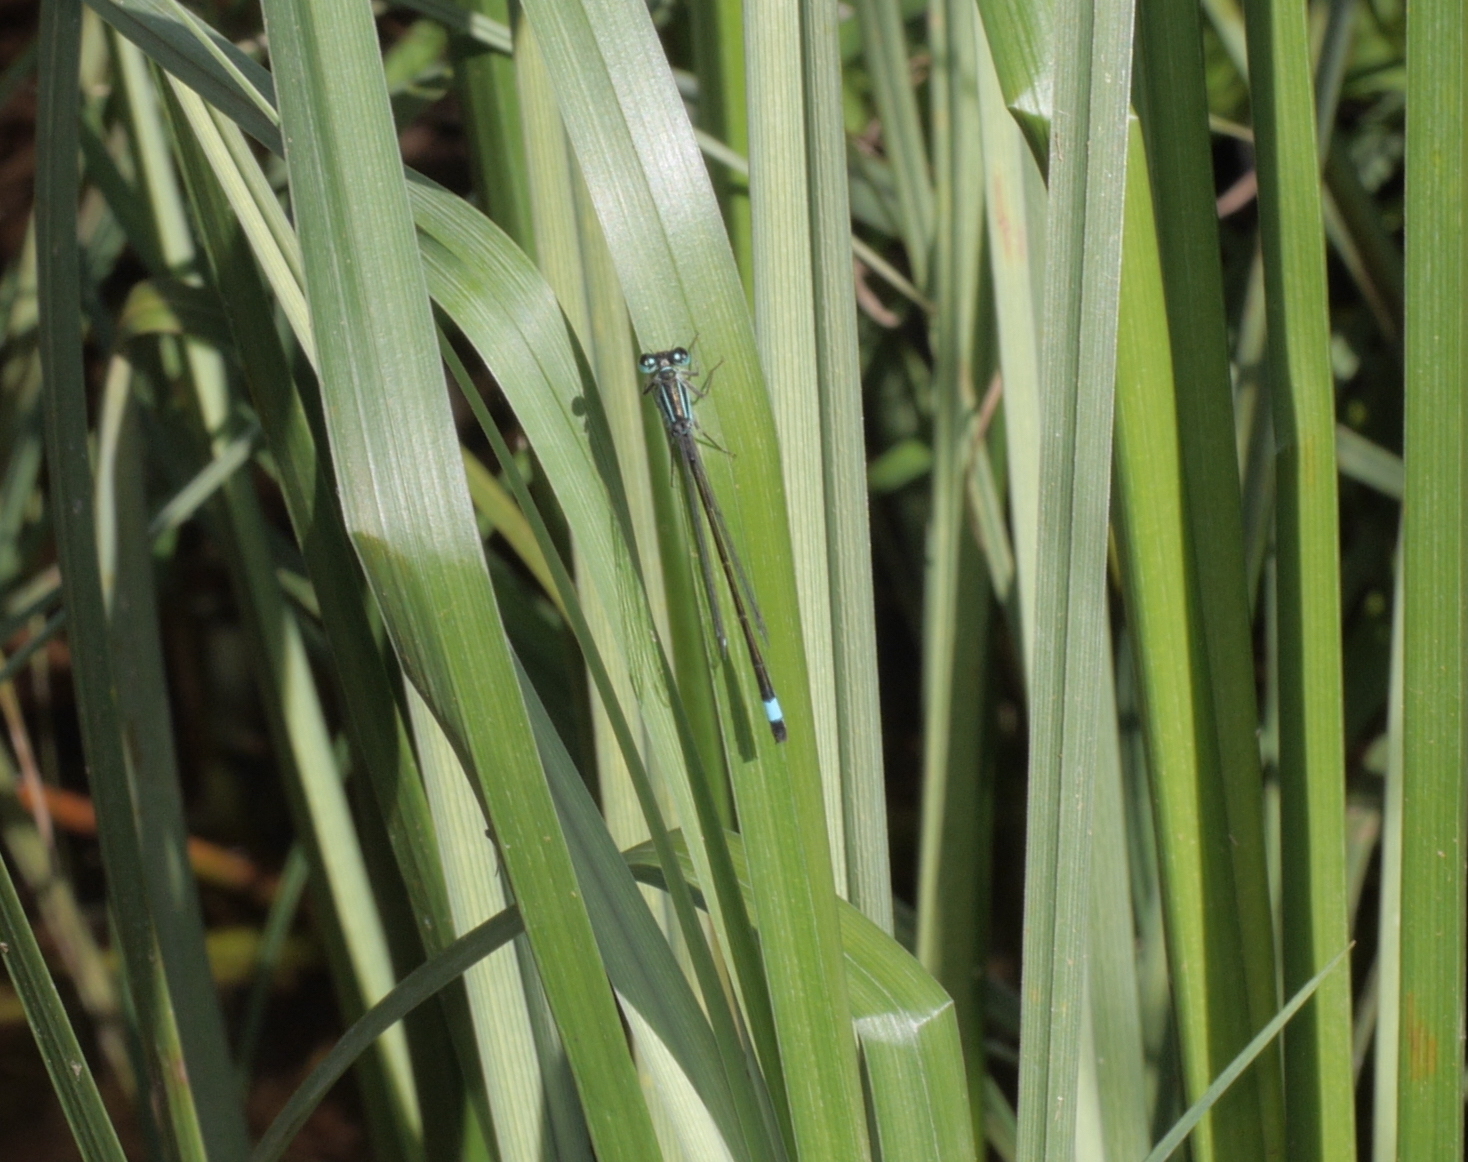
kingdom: Animalia
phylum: Arthropoda
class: Insecta
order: Odonata
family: Coenagrionidae
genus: Ischnura
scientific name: Ischnura elegans
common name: Blue-tailed damselfly
